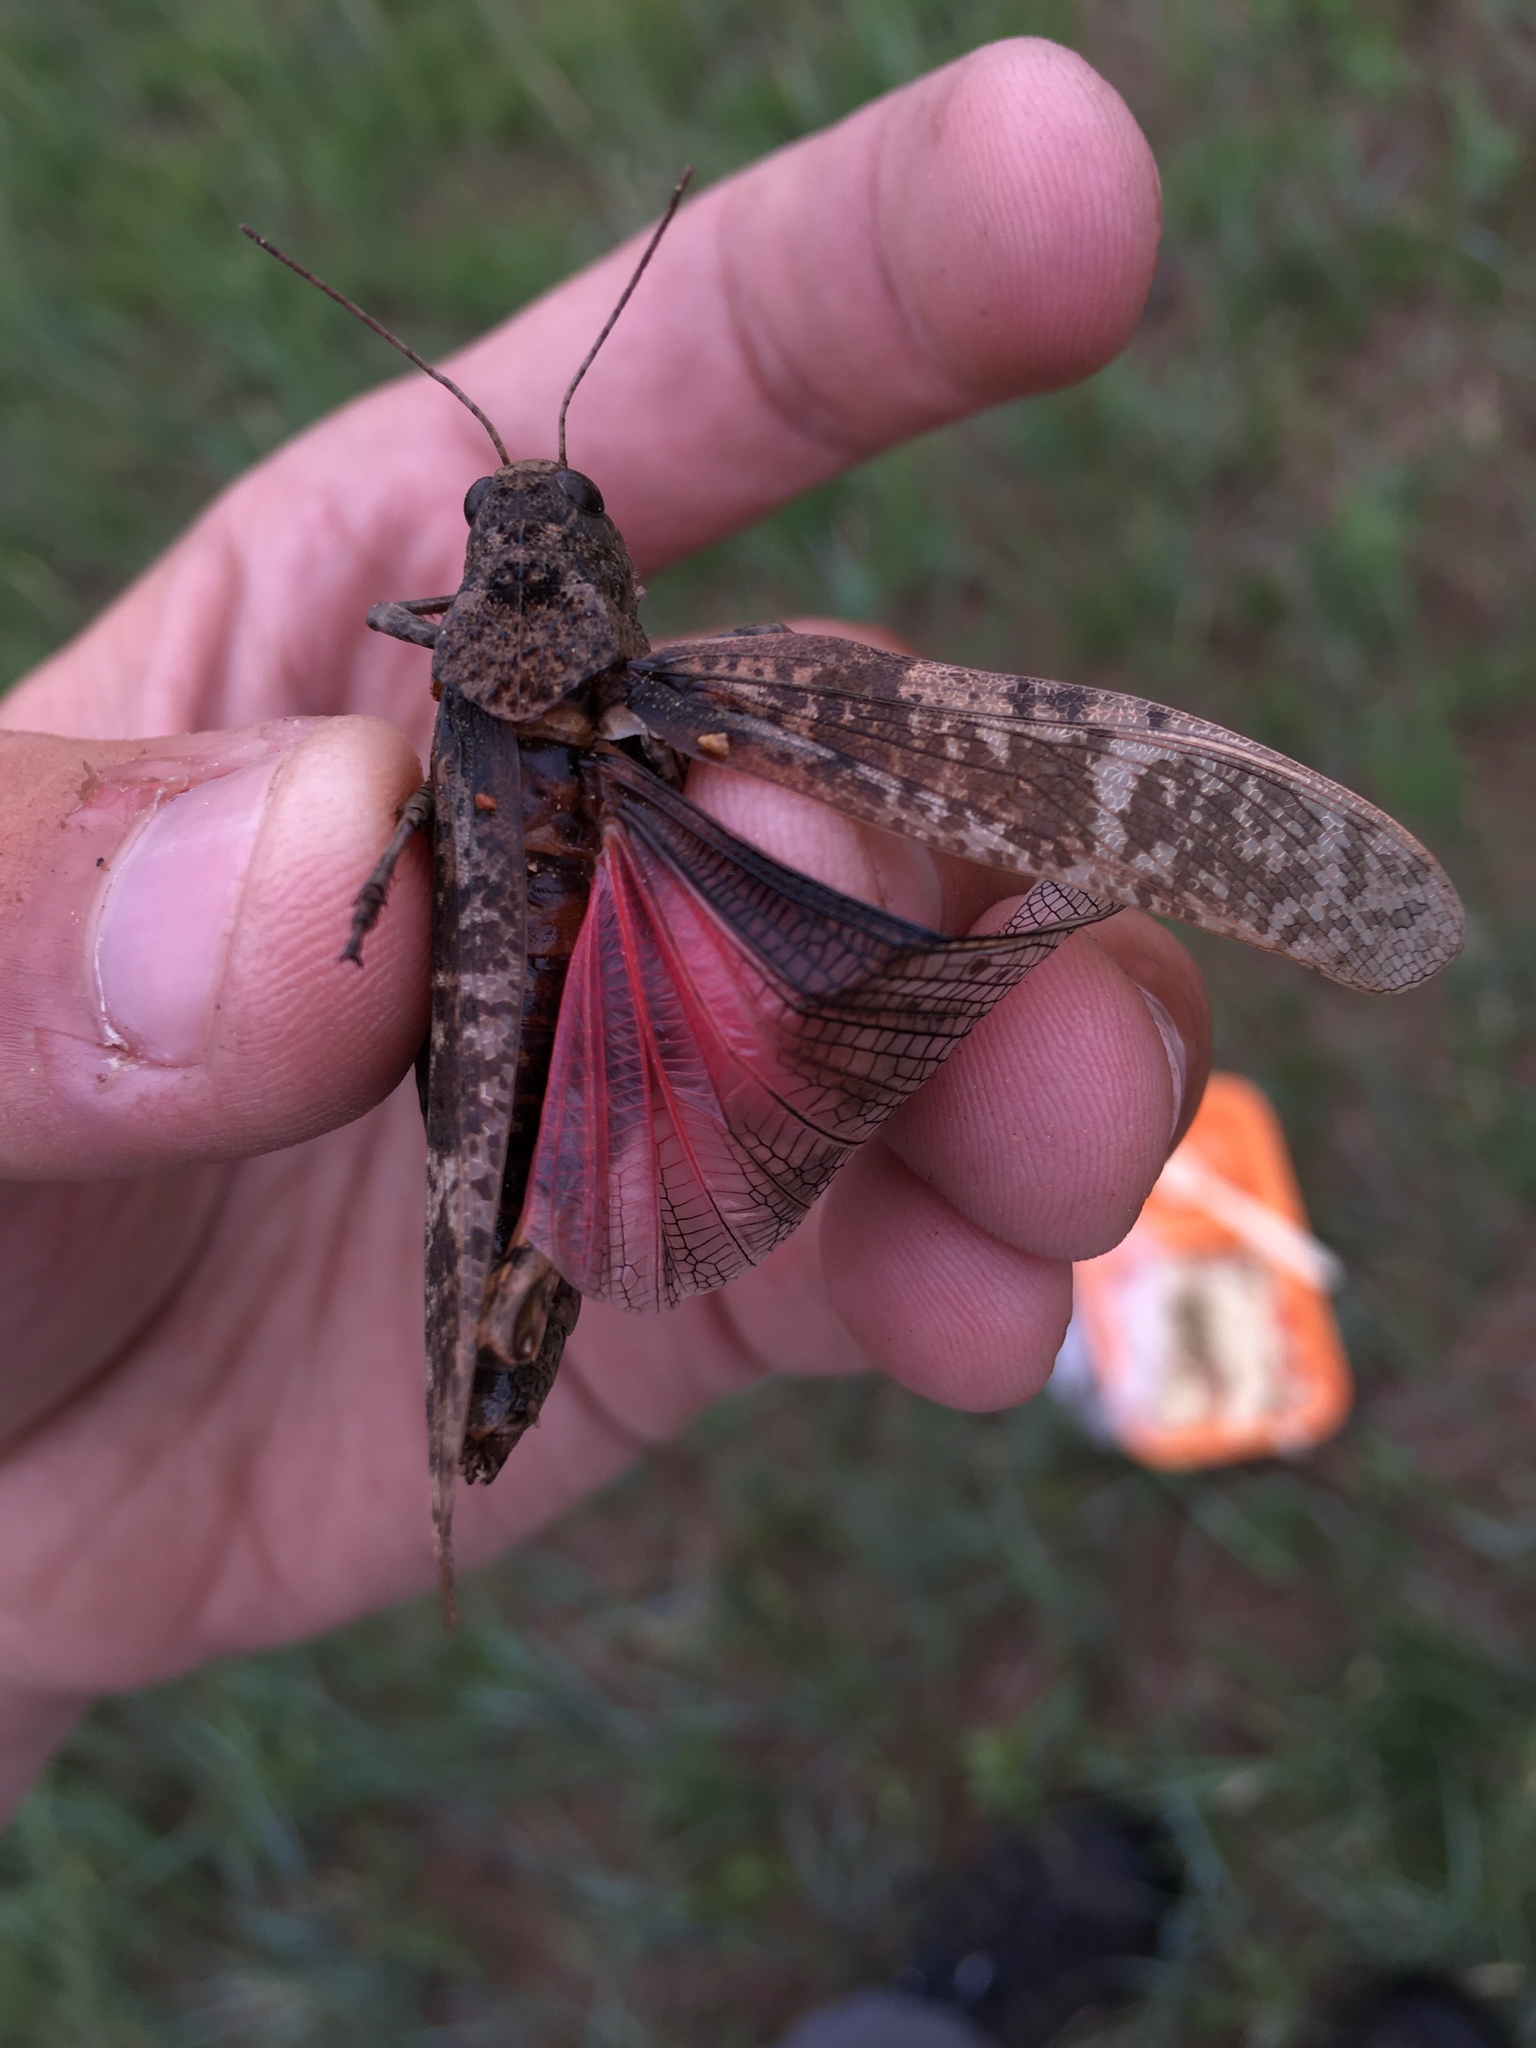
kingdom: Animalia
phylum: Arthropoda
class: Insecta
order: Orthoptera
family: Acrididae
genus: Bryodemella
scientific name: Bryodemella holdereri
